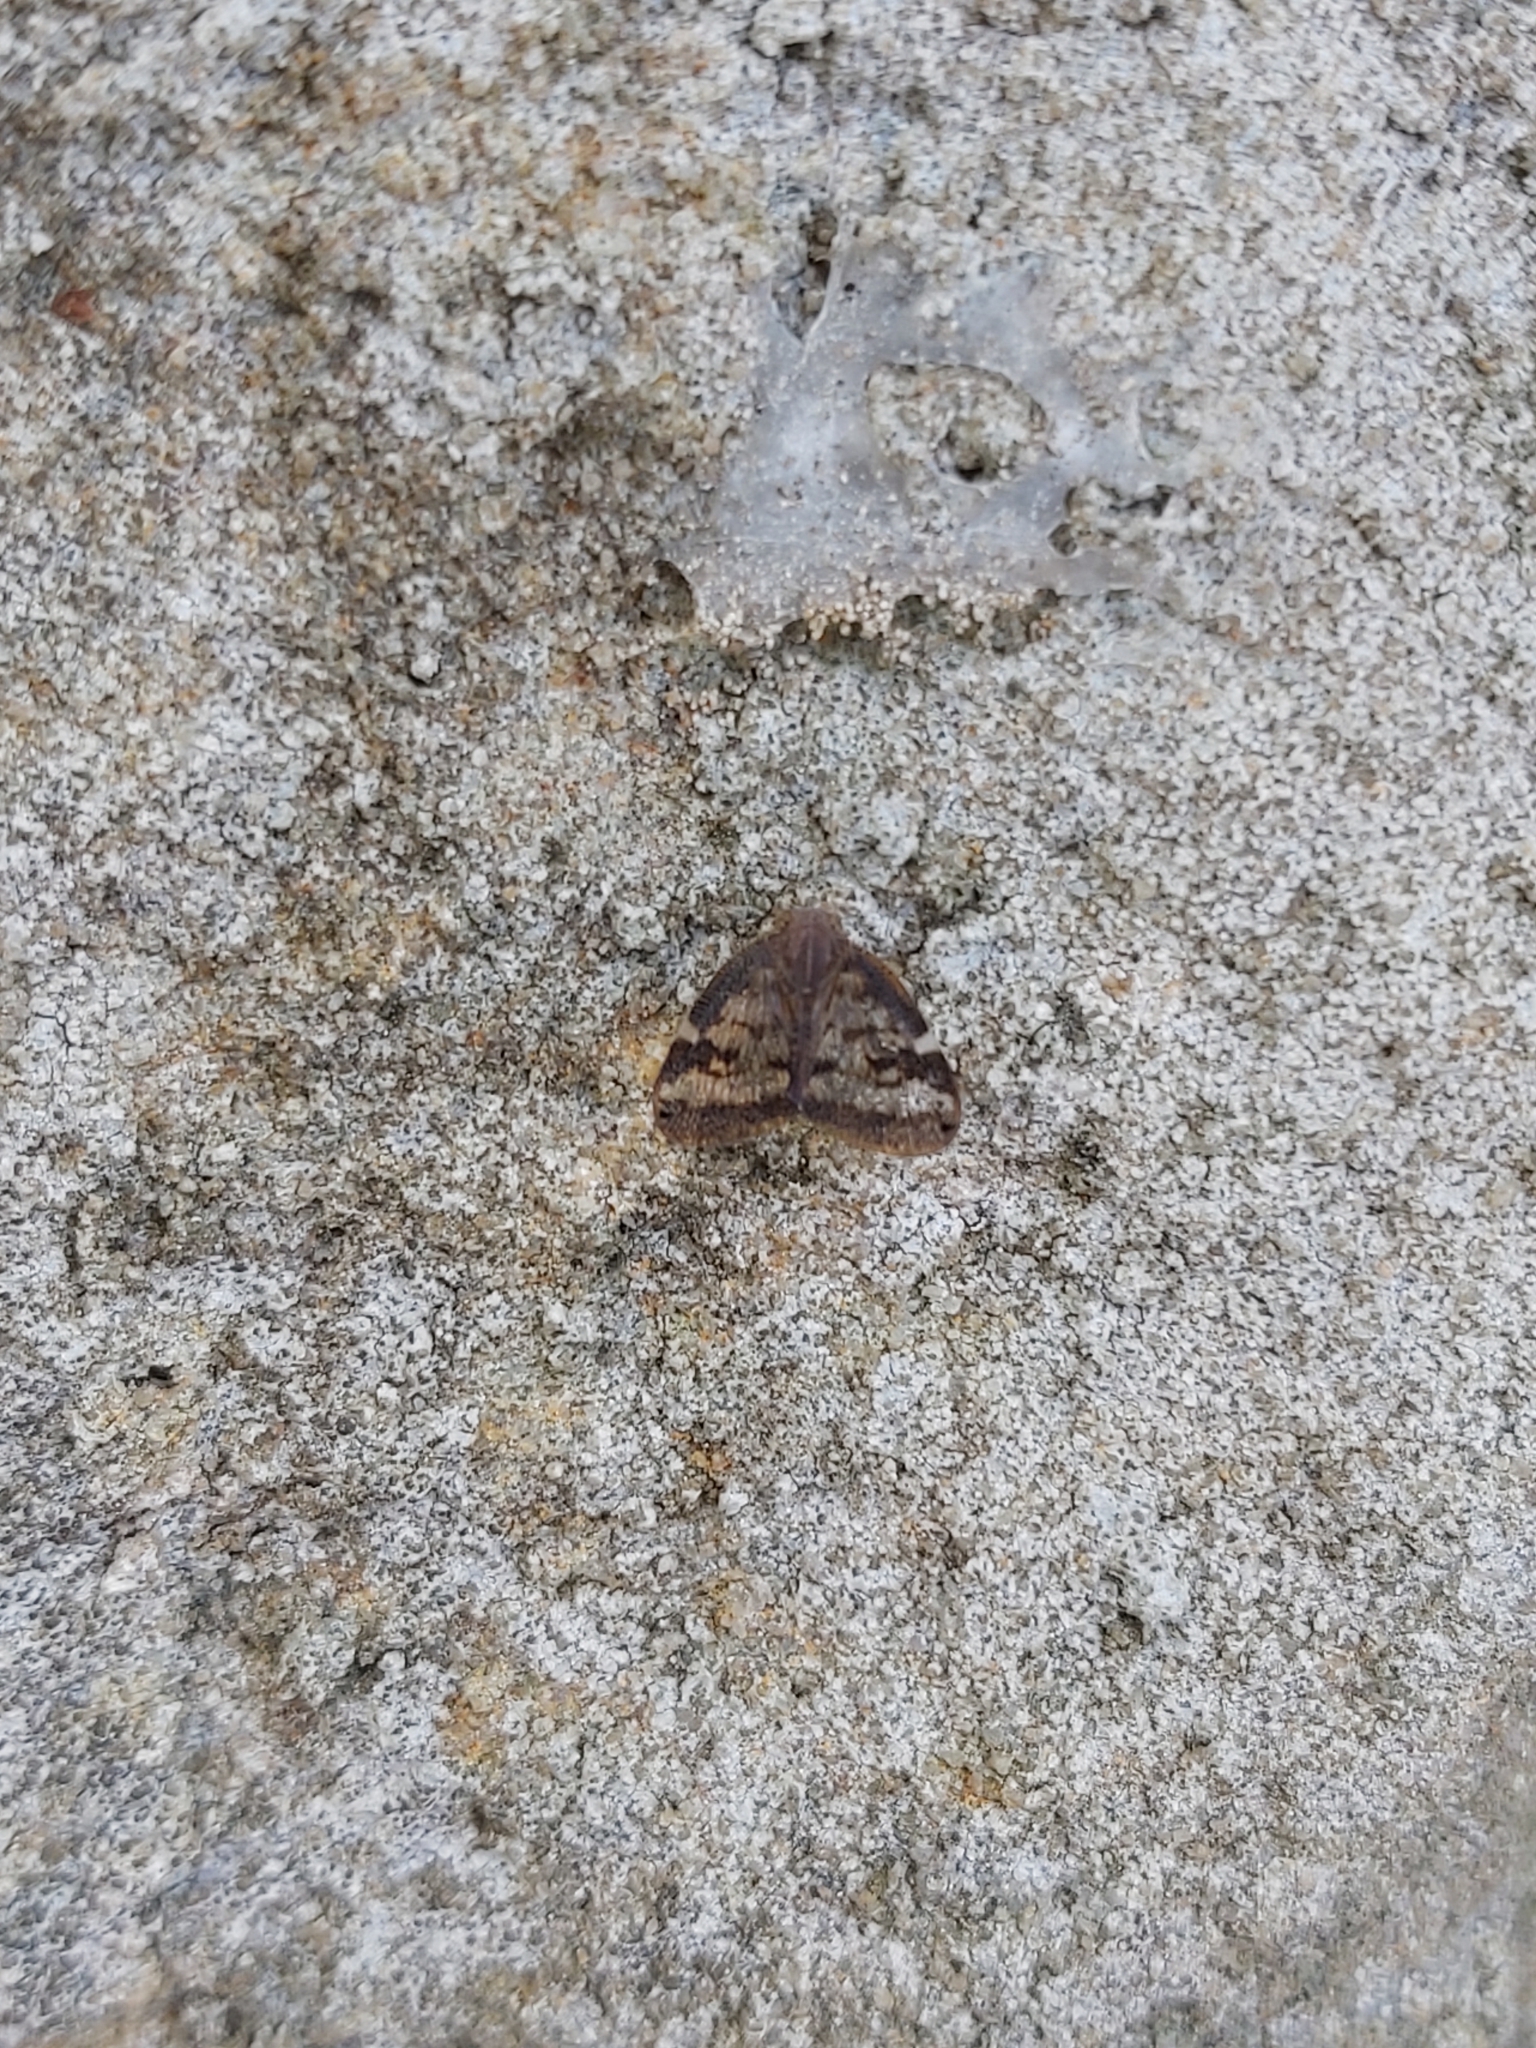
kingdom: Animalia
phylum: Arthropoda
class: Insecta
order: Hemiptera
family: Ricaniidae
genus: Scolypopa
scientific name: Scolypopa australis
